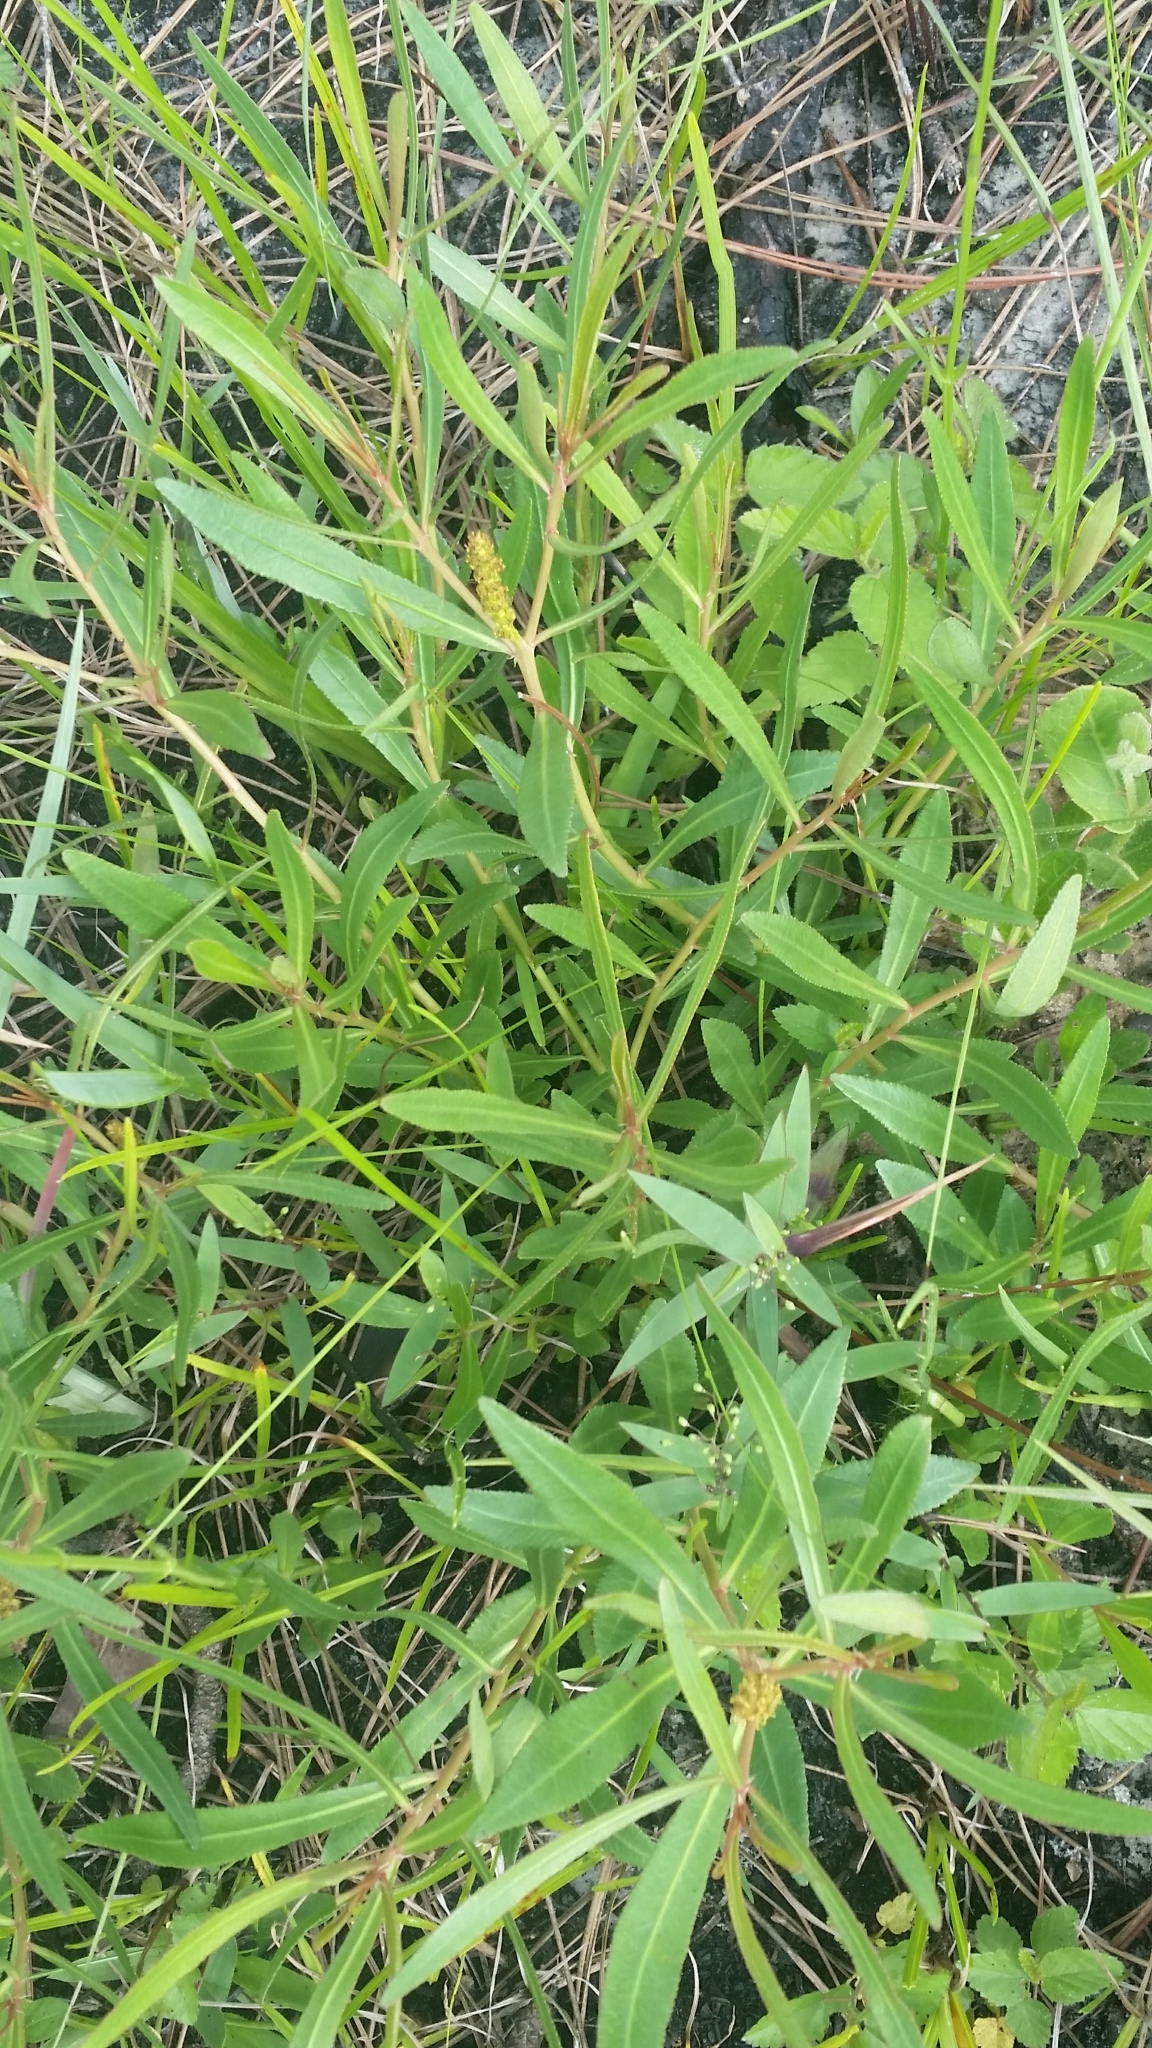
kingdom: Plantae
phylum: Tracheophyta
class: Magnoliopsida
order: Malpighiales
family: Euphorbiaceae
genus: Stillingia
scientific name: Stillingia sylvatica
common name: Queen's-delight
